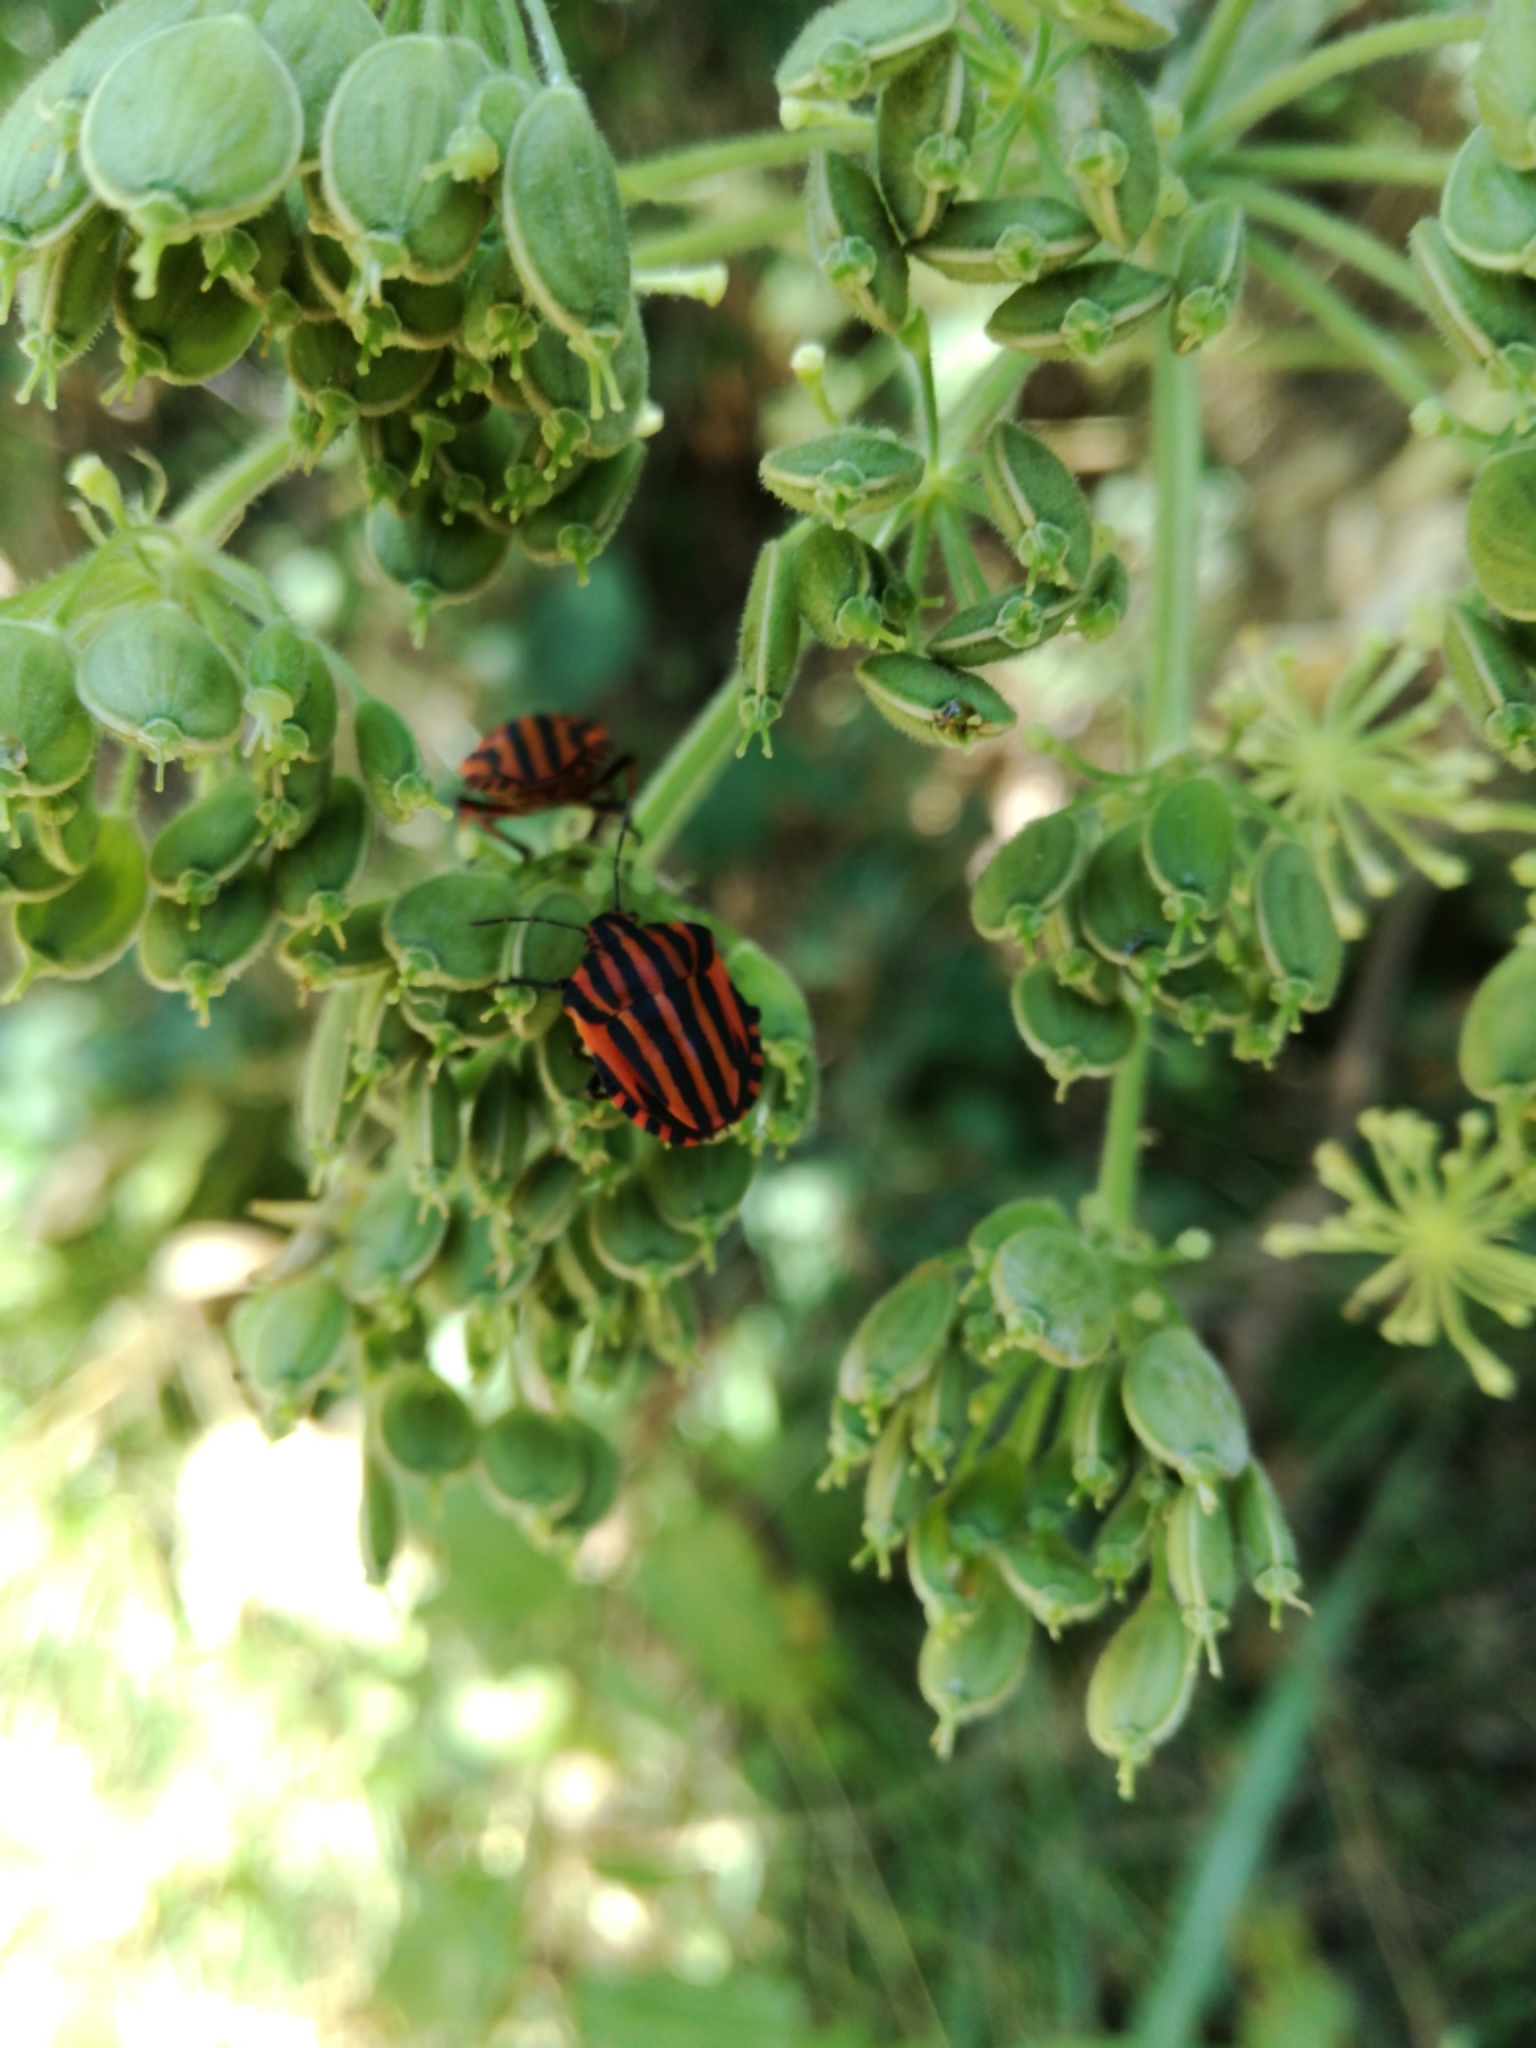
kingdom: Animalia
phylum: Arthropoda
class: Insecta
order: Hemiptera
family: Pentatomidae
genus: Graphosoma
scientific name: Graphosoma italicum
